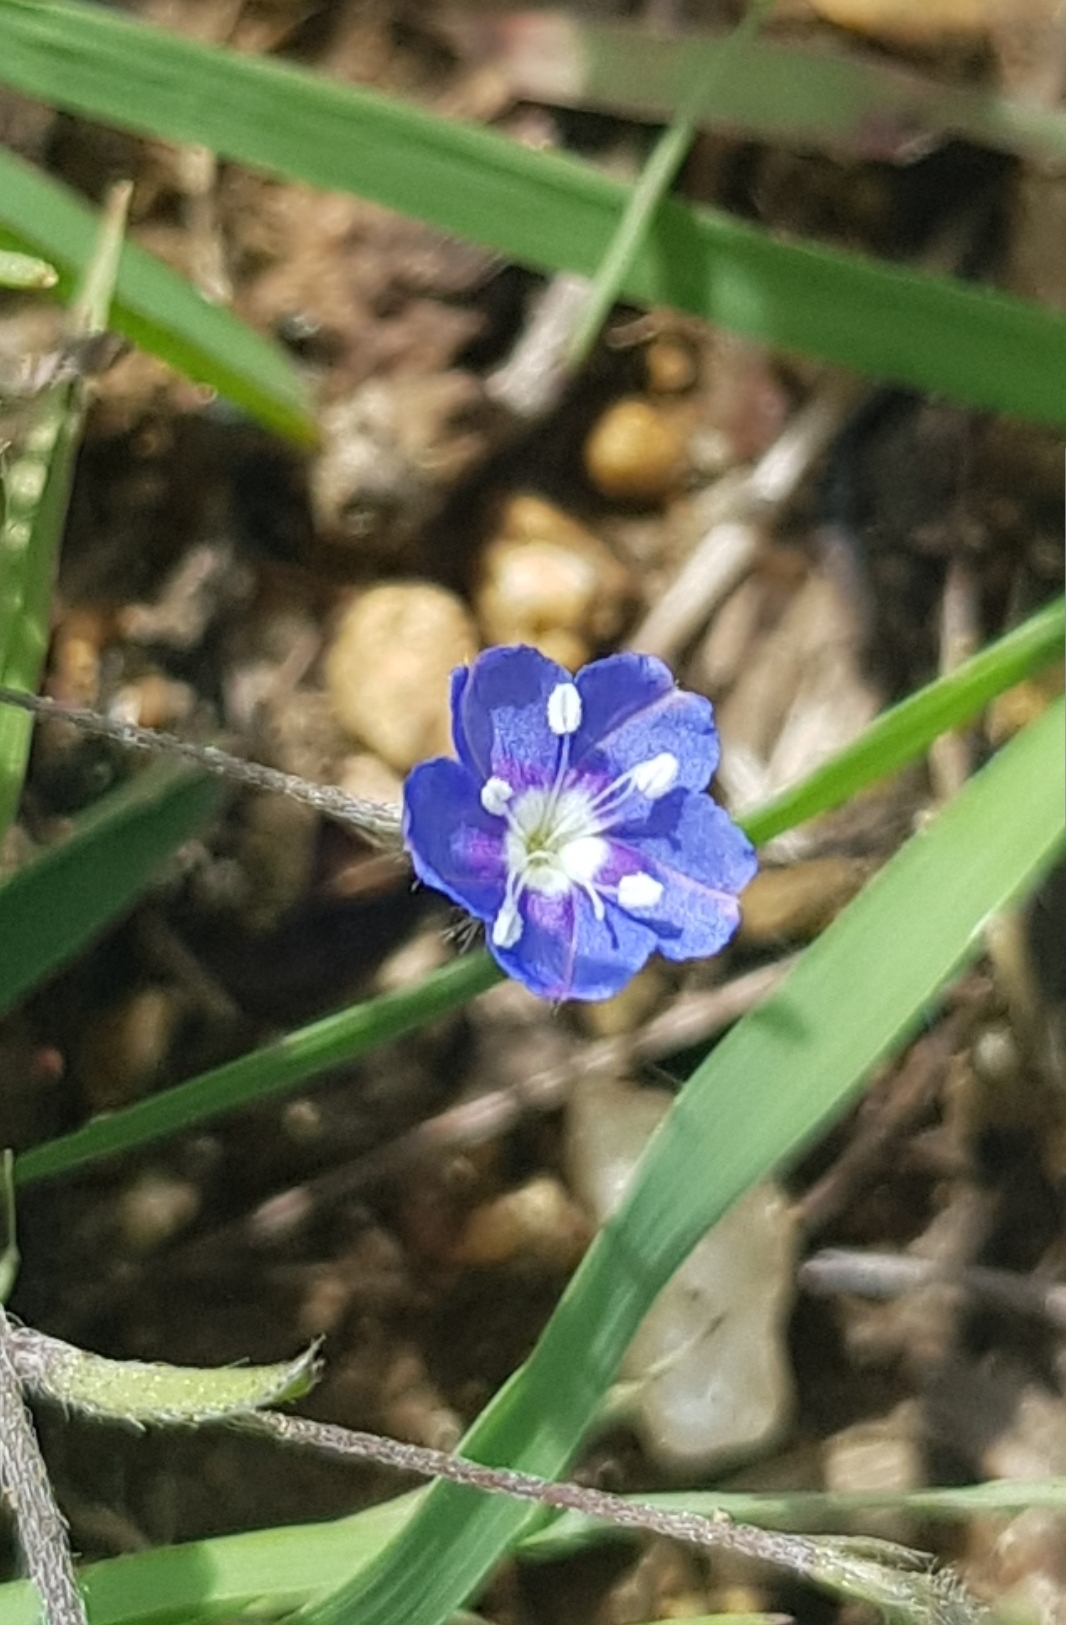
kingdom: Plantae
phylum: Tracheophyta
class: Magnoliopsida
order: Solanales
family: Convolvulaceae
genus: Evolvulus
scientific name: Evolvulus alsinoides
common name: Slender dwarf morning-glory
